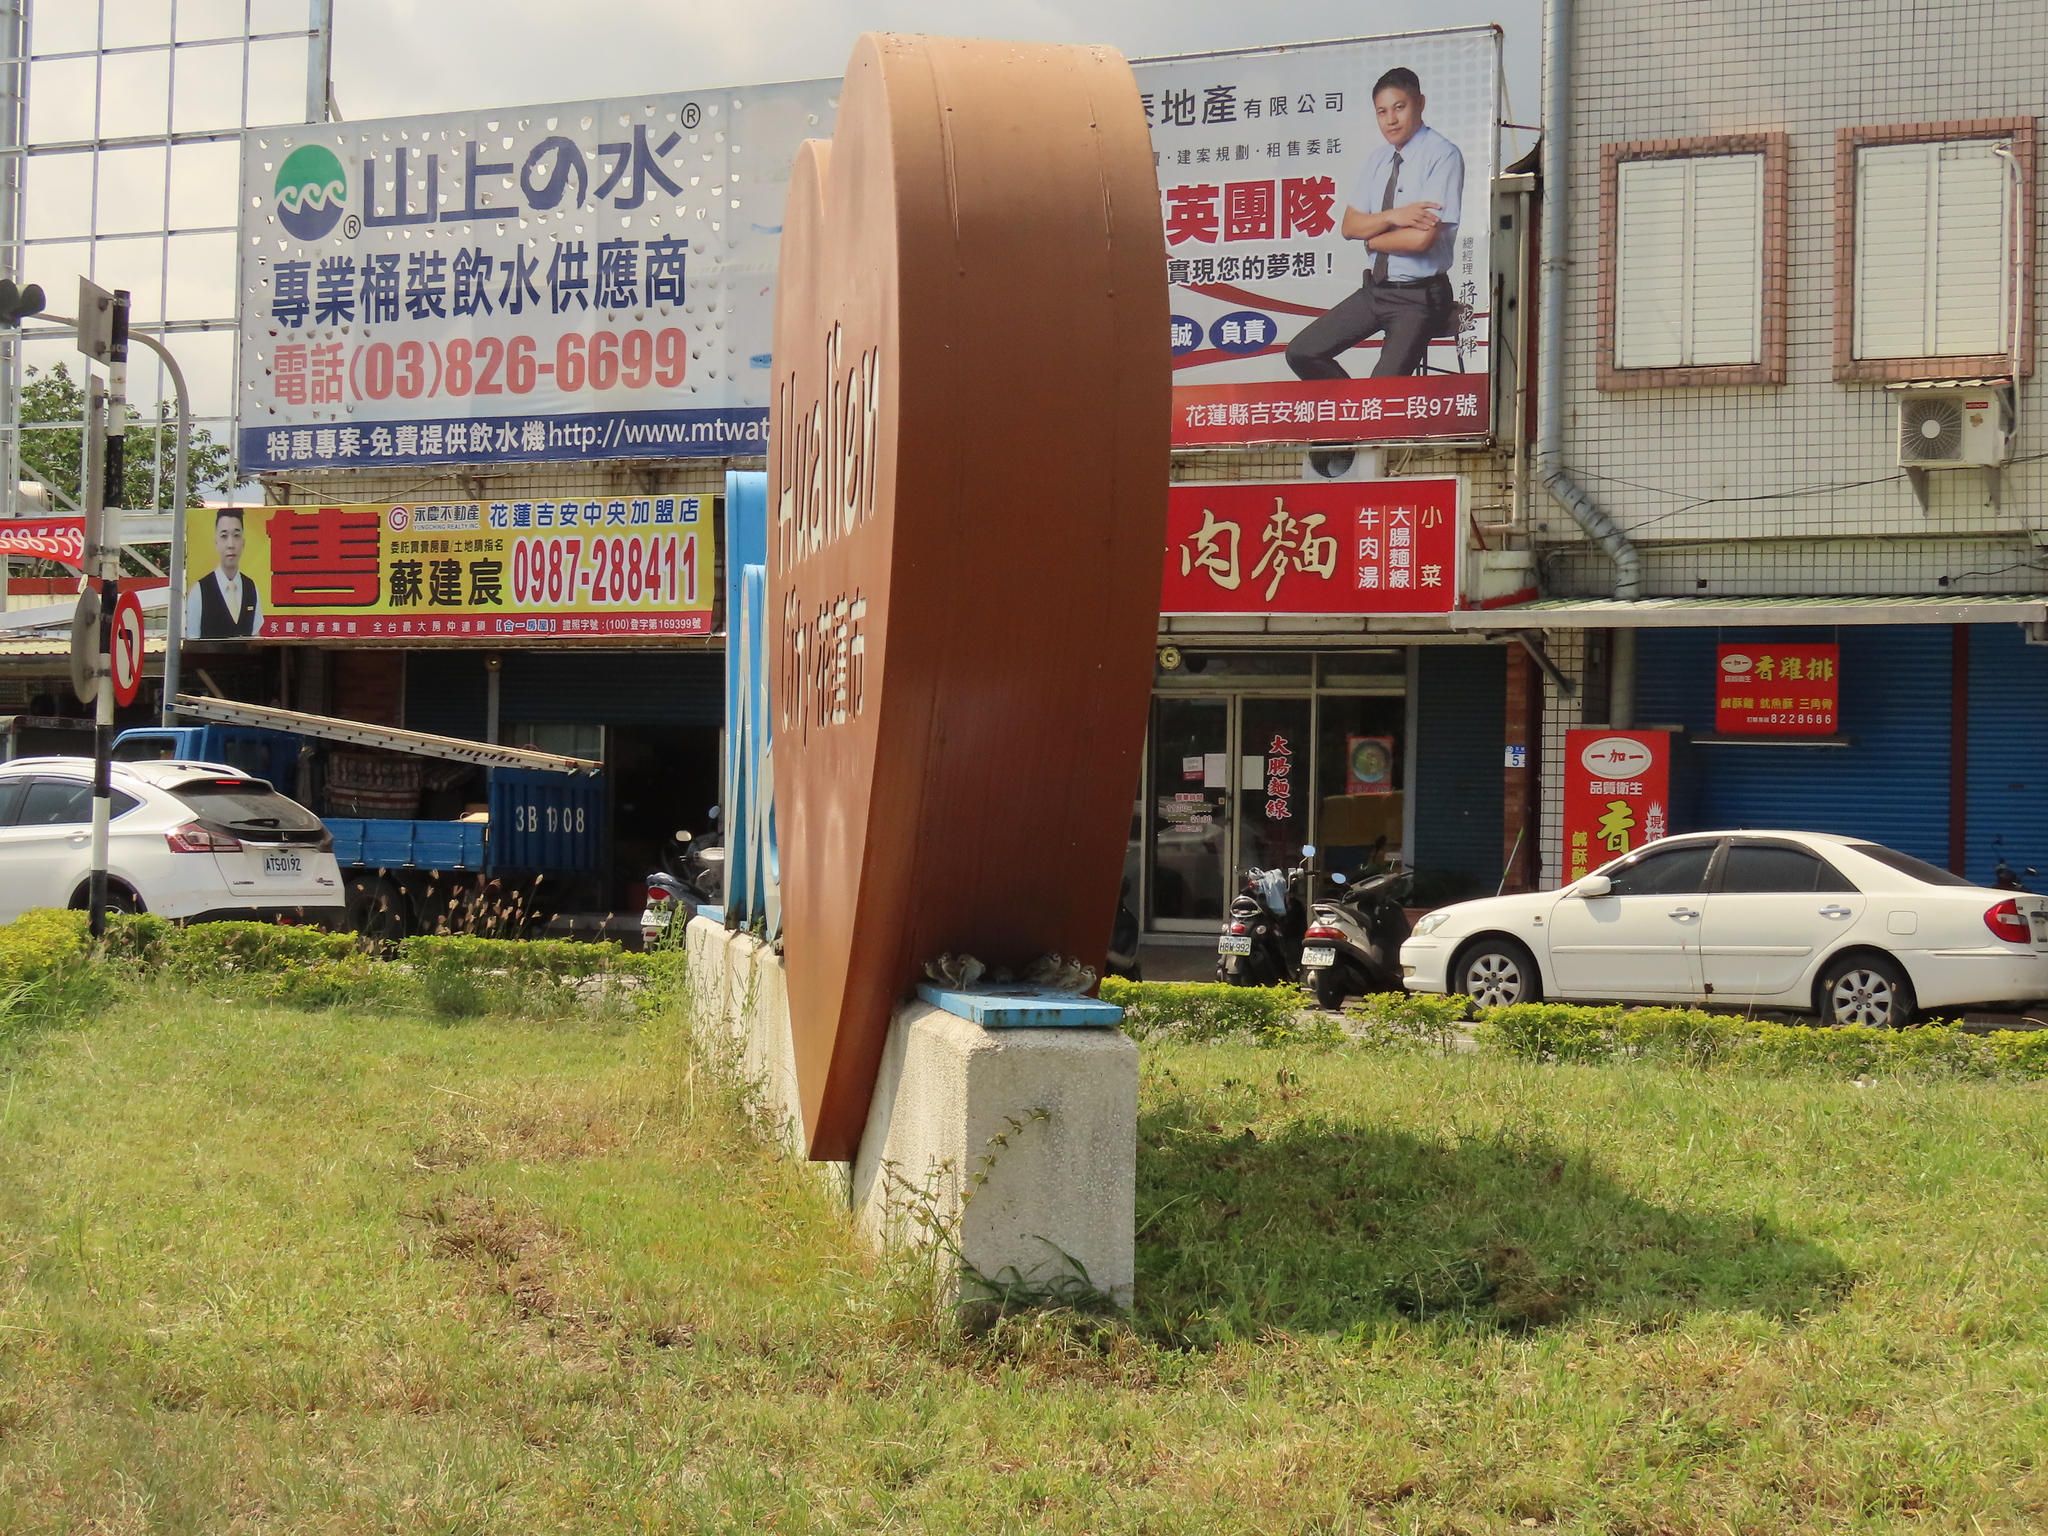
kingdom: Animalia
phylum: Chordata
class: Aves
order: Passeriformes
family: Passeridae
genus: Passer
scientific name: Passer montanus
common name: Eurasian tree sparrow
